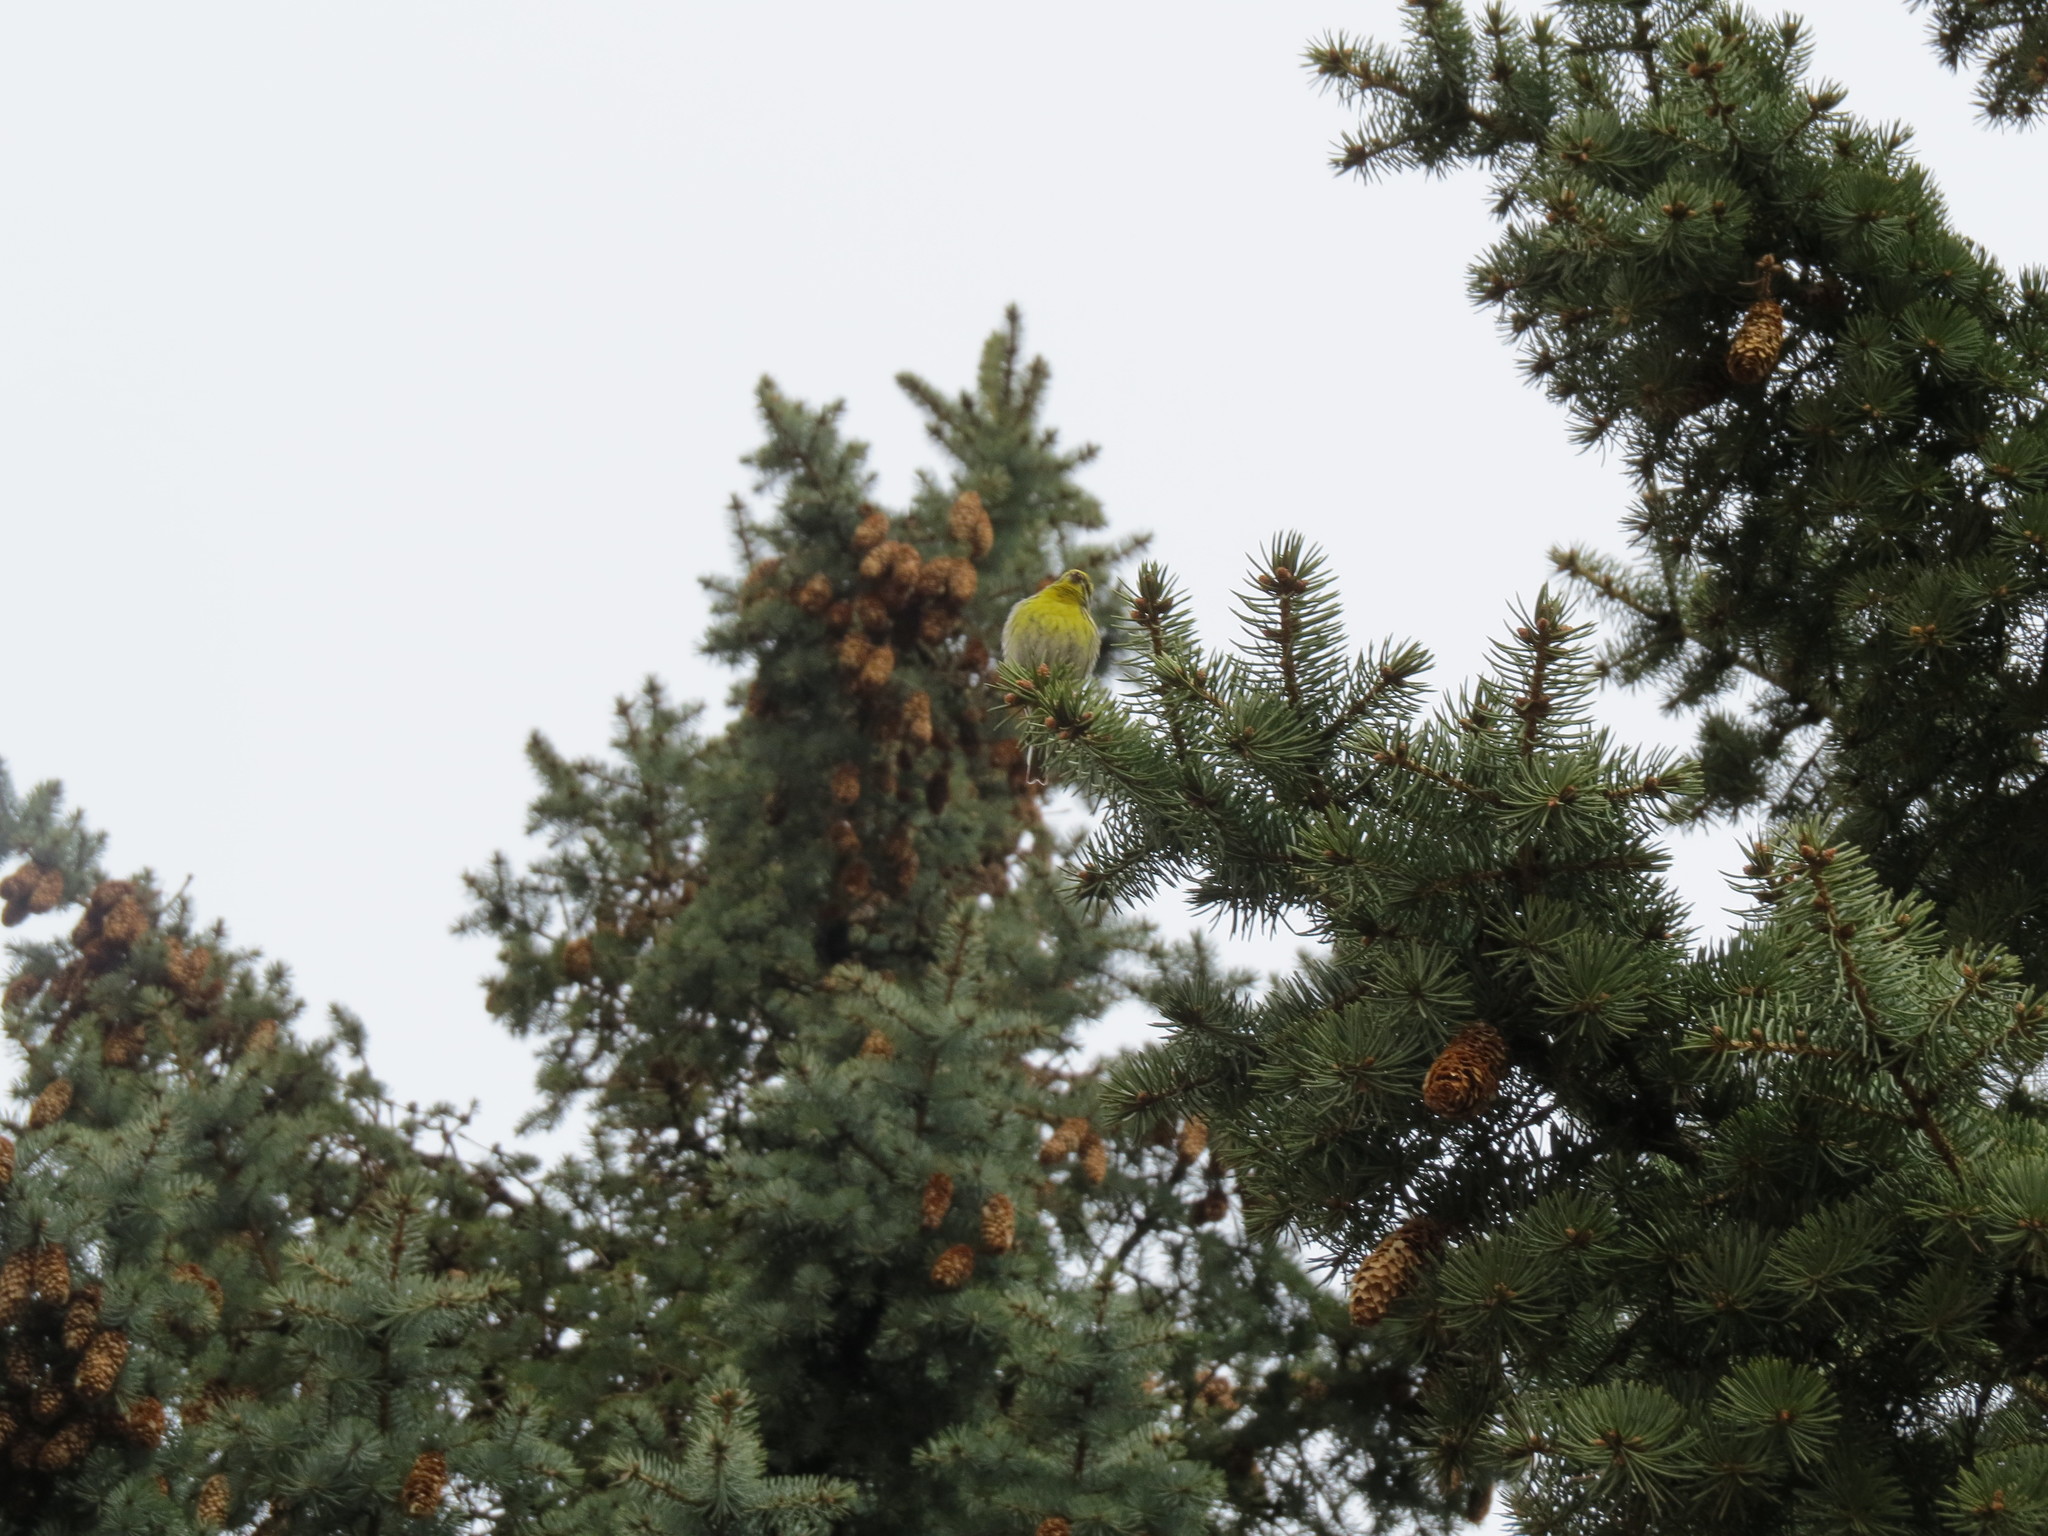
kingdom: Animalia
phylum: Chordata
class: Aves
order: Passeriformes
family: Fringillidae
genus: Serinus
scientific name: Serinus serinus
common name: European serin
